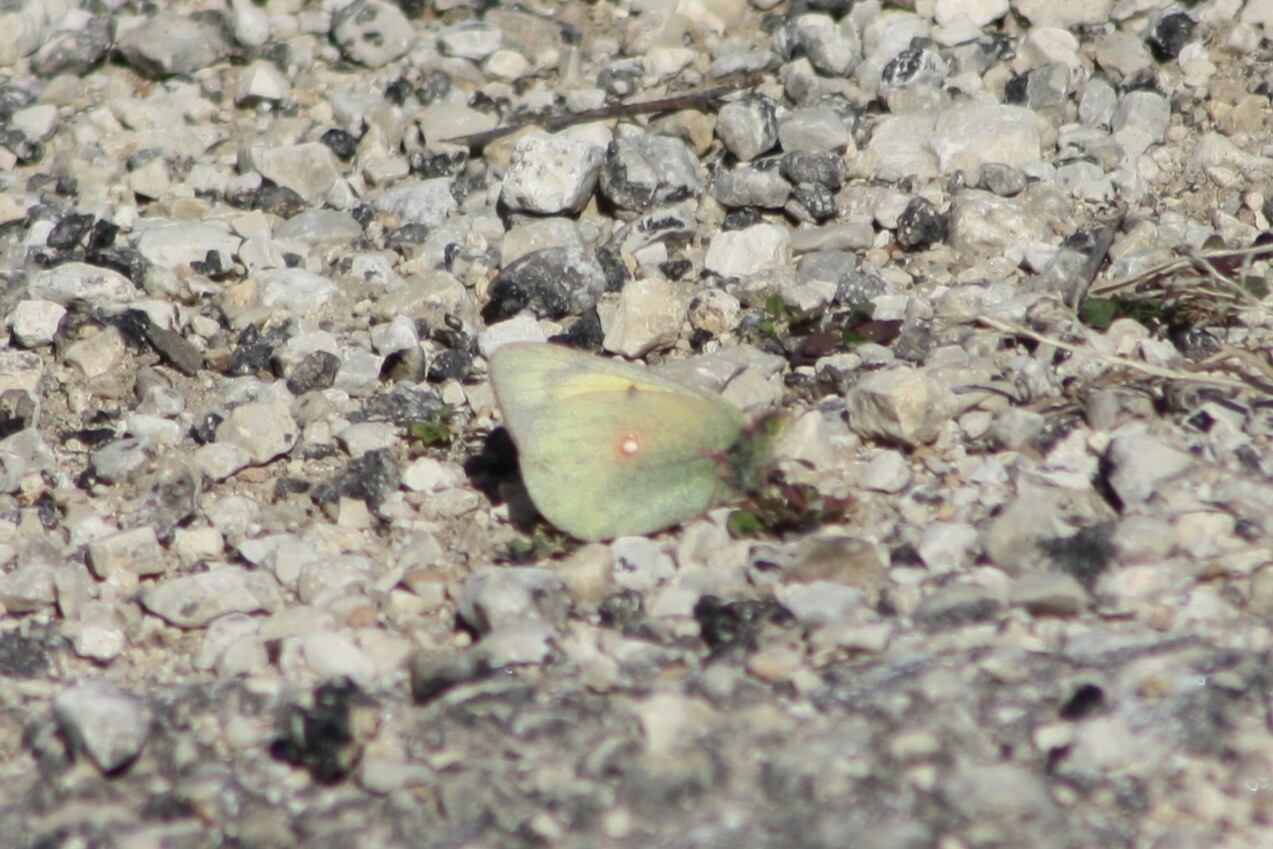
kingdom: Animalia
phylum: Arthropoda
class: Insecta
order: Lepidoptera
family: Pieridae
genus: Colias
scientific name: Colias eurytheme
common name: Alfalfa butterfly
